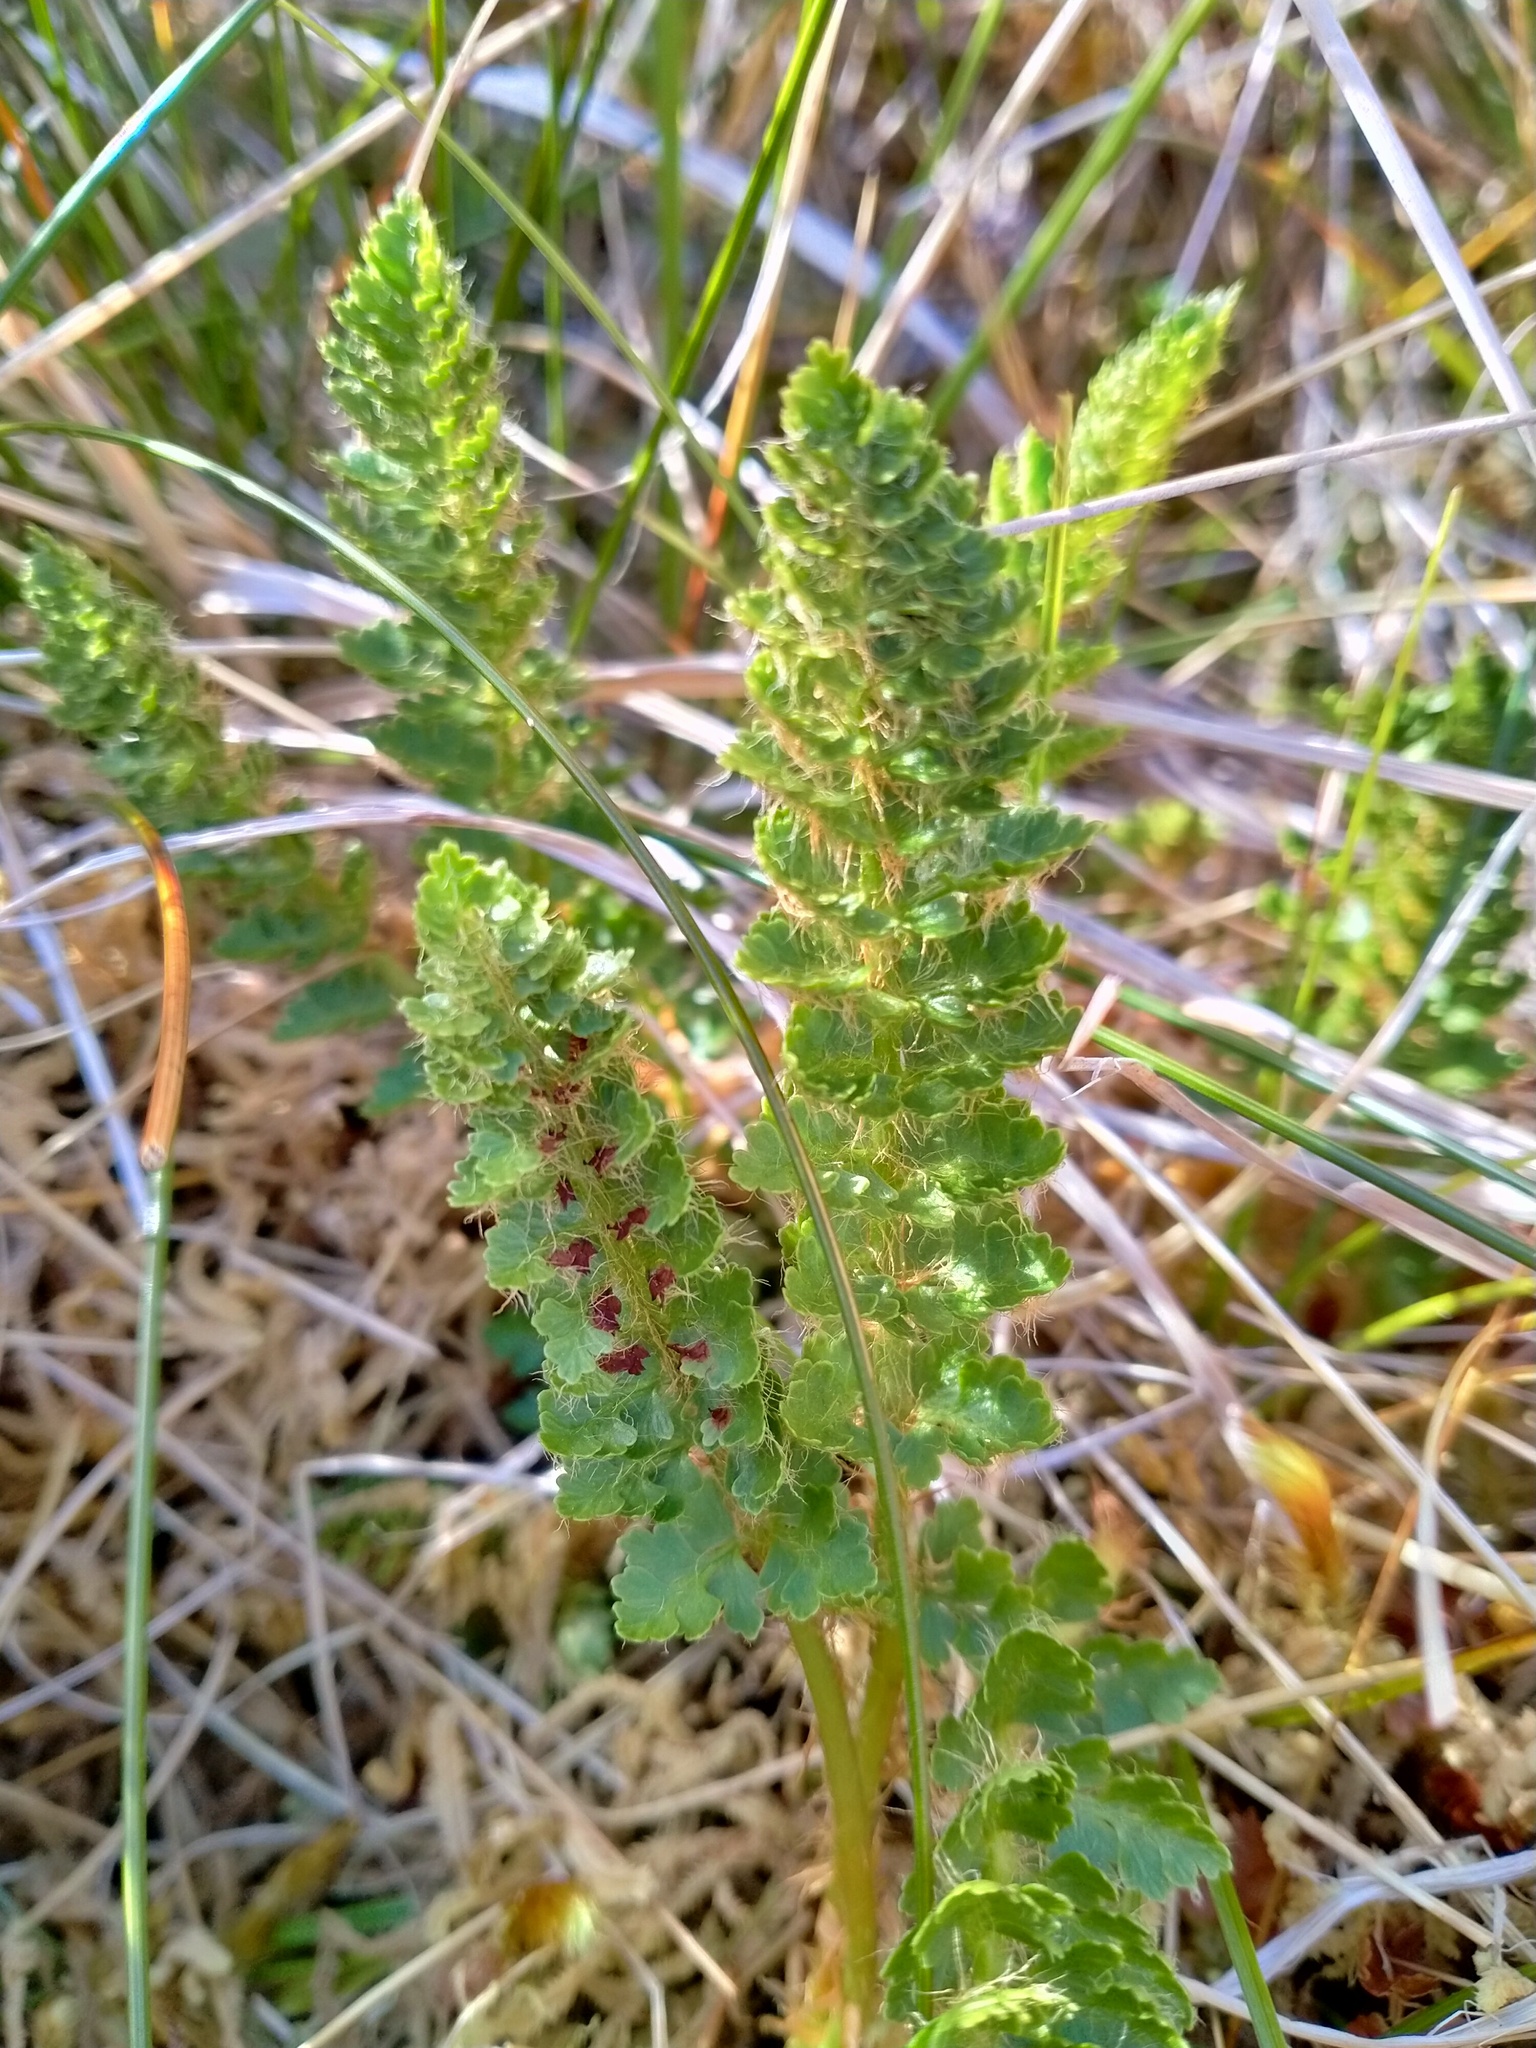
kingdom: Plantae
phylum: Tracheophyta
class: Polypodiopsida
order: Polypodiales
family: Dryopteridaceae
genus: Polystichum
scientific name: Polystichum cystostegia
